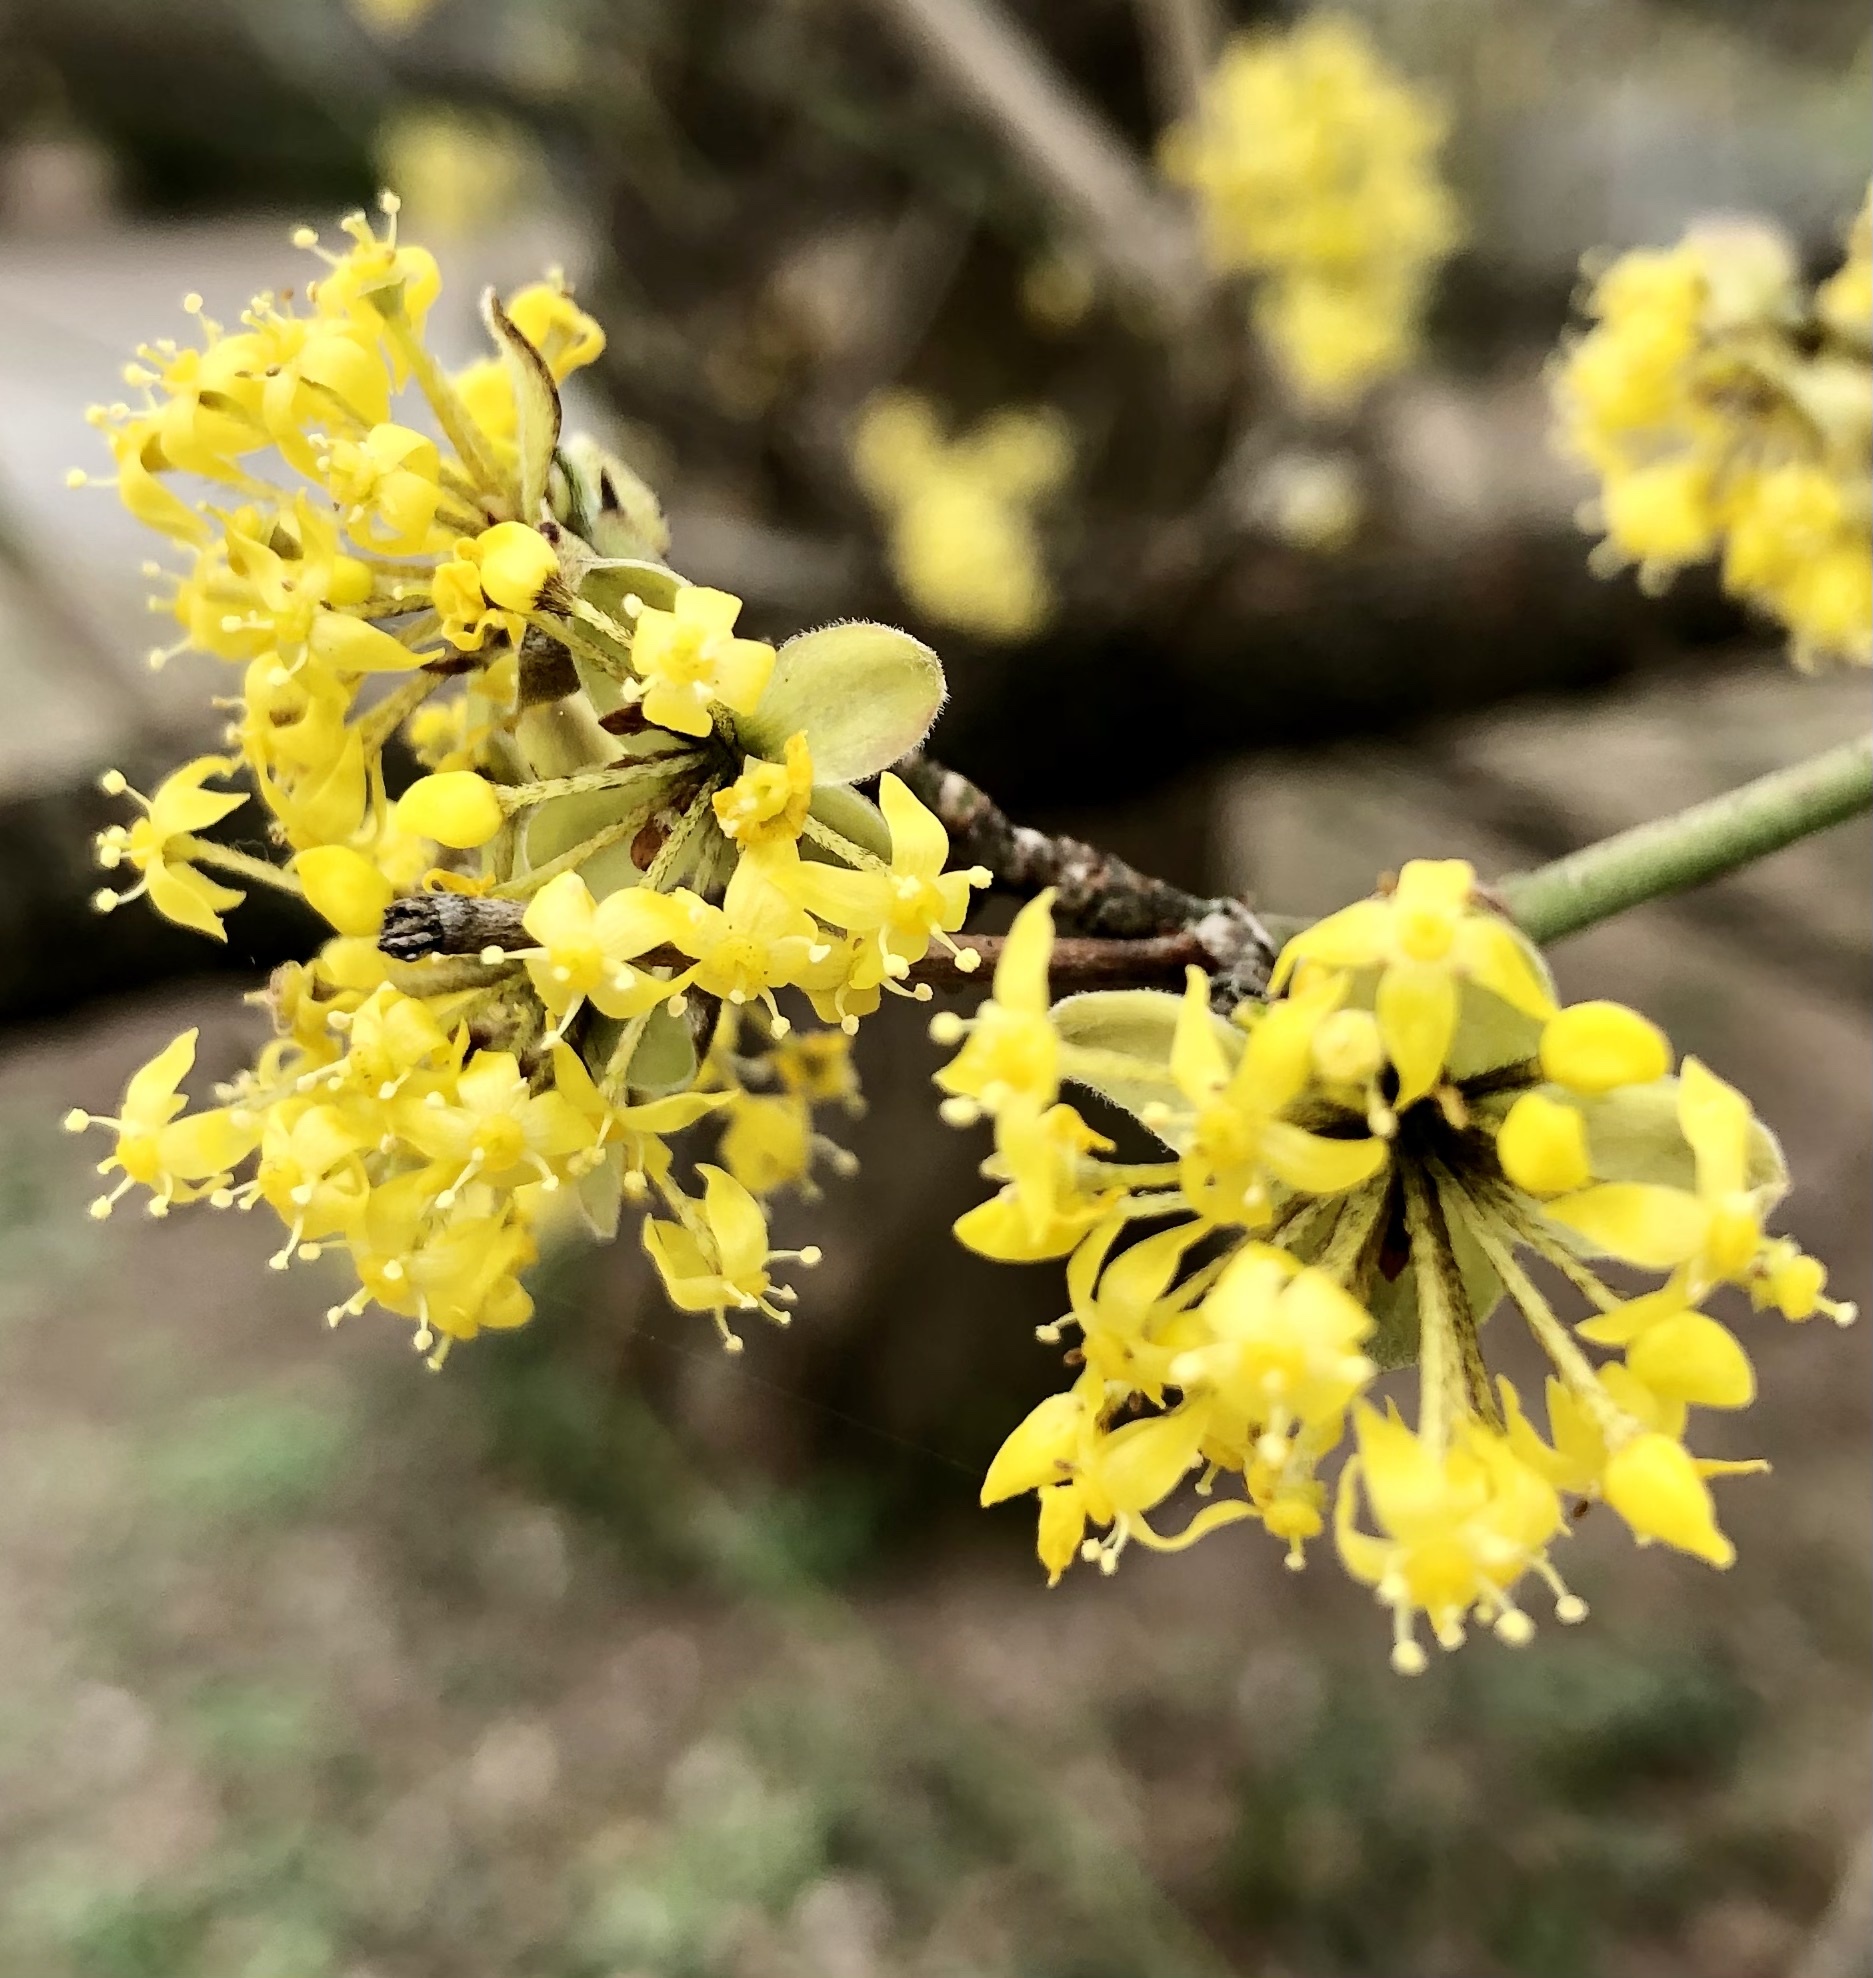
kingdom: Plantae
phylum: Tracheophyta
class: Magnoliopsida
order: Cornales
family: Cornaceae
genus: Cornus
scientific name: Cornus mas
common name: Cornelian-cherry
